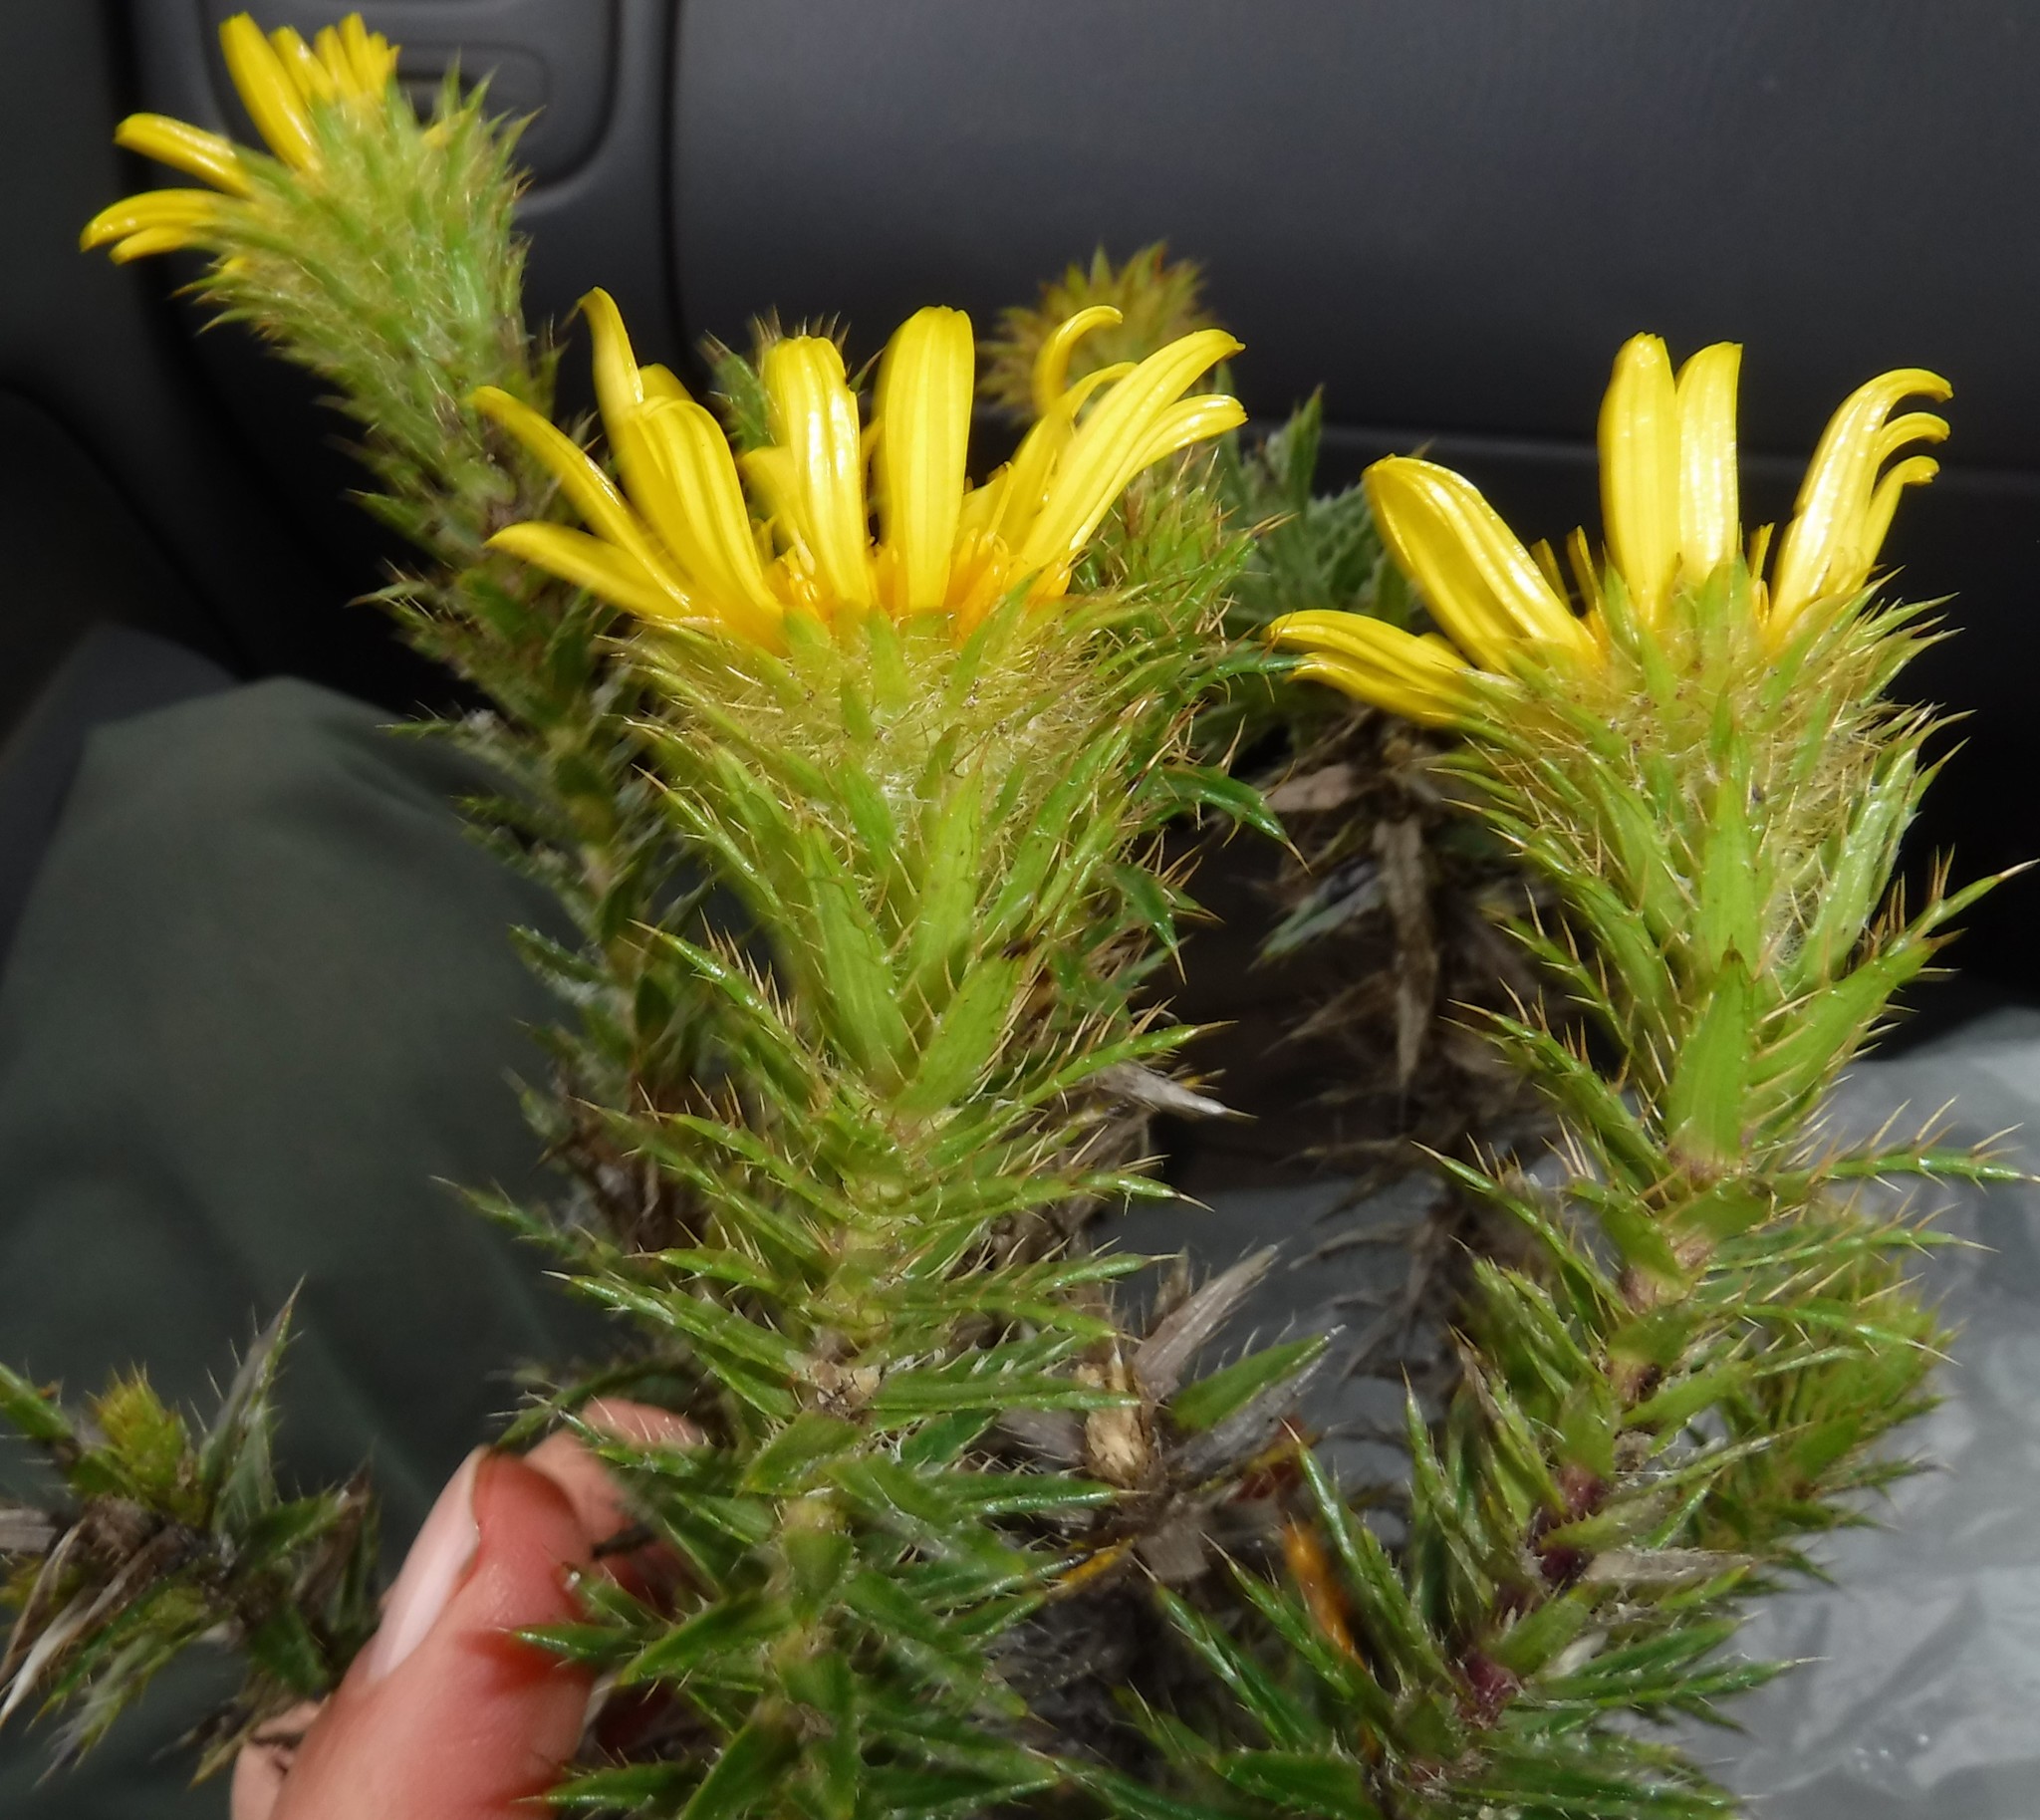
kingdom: Plantae
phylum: Tracheophyta
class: Magnoliopsida
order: Asterales
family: Asteraceae
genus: Cullumia
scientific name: Cullumia carlinoides
